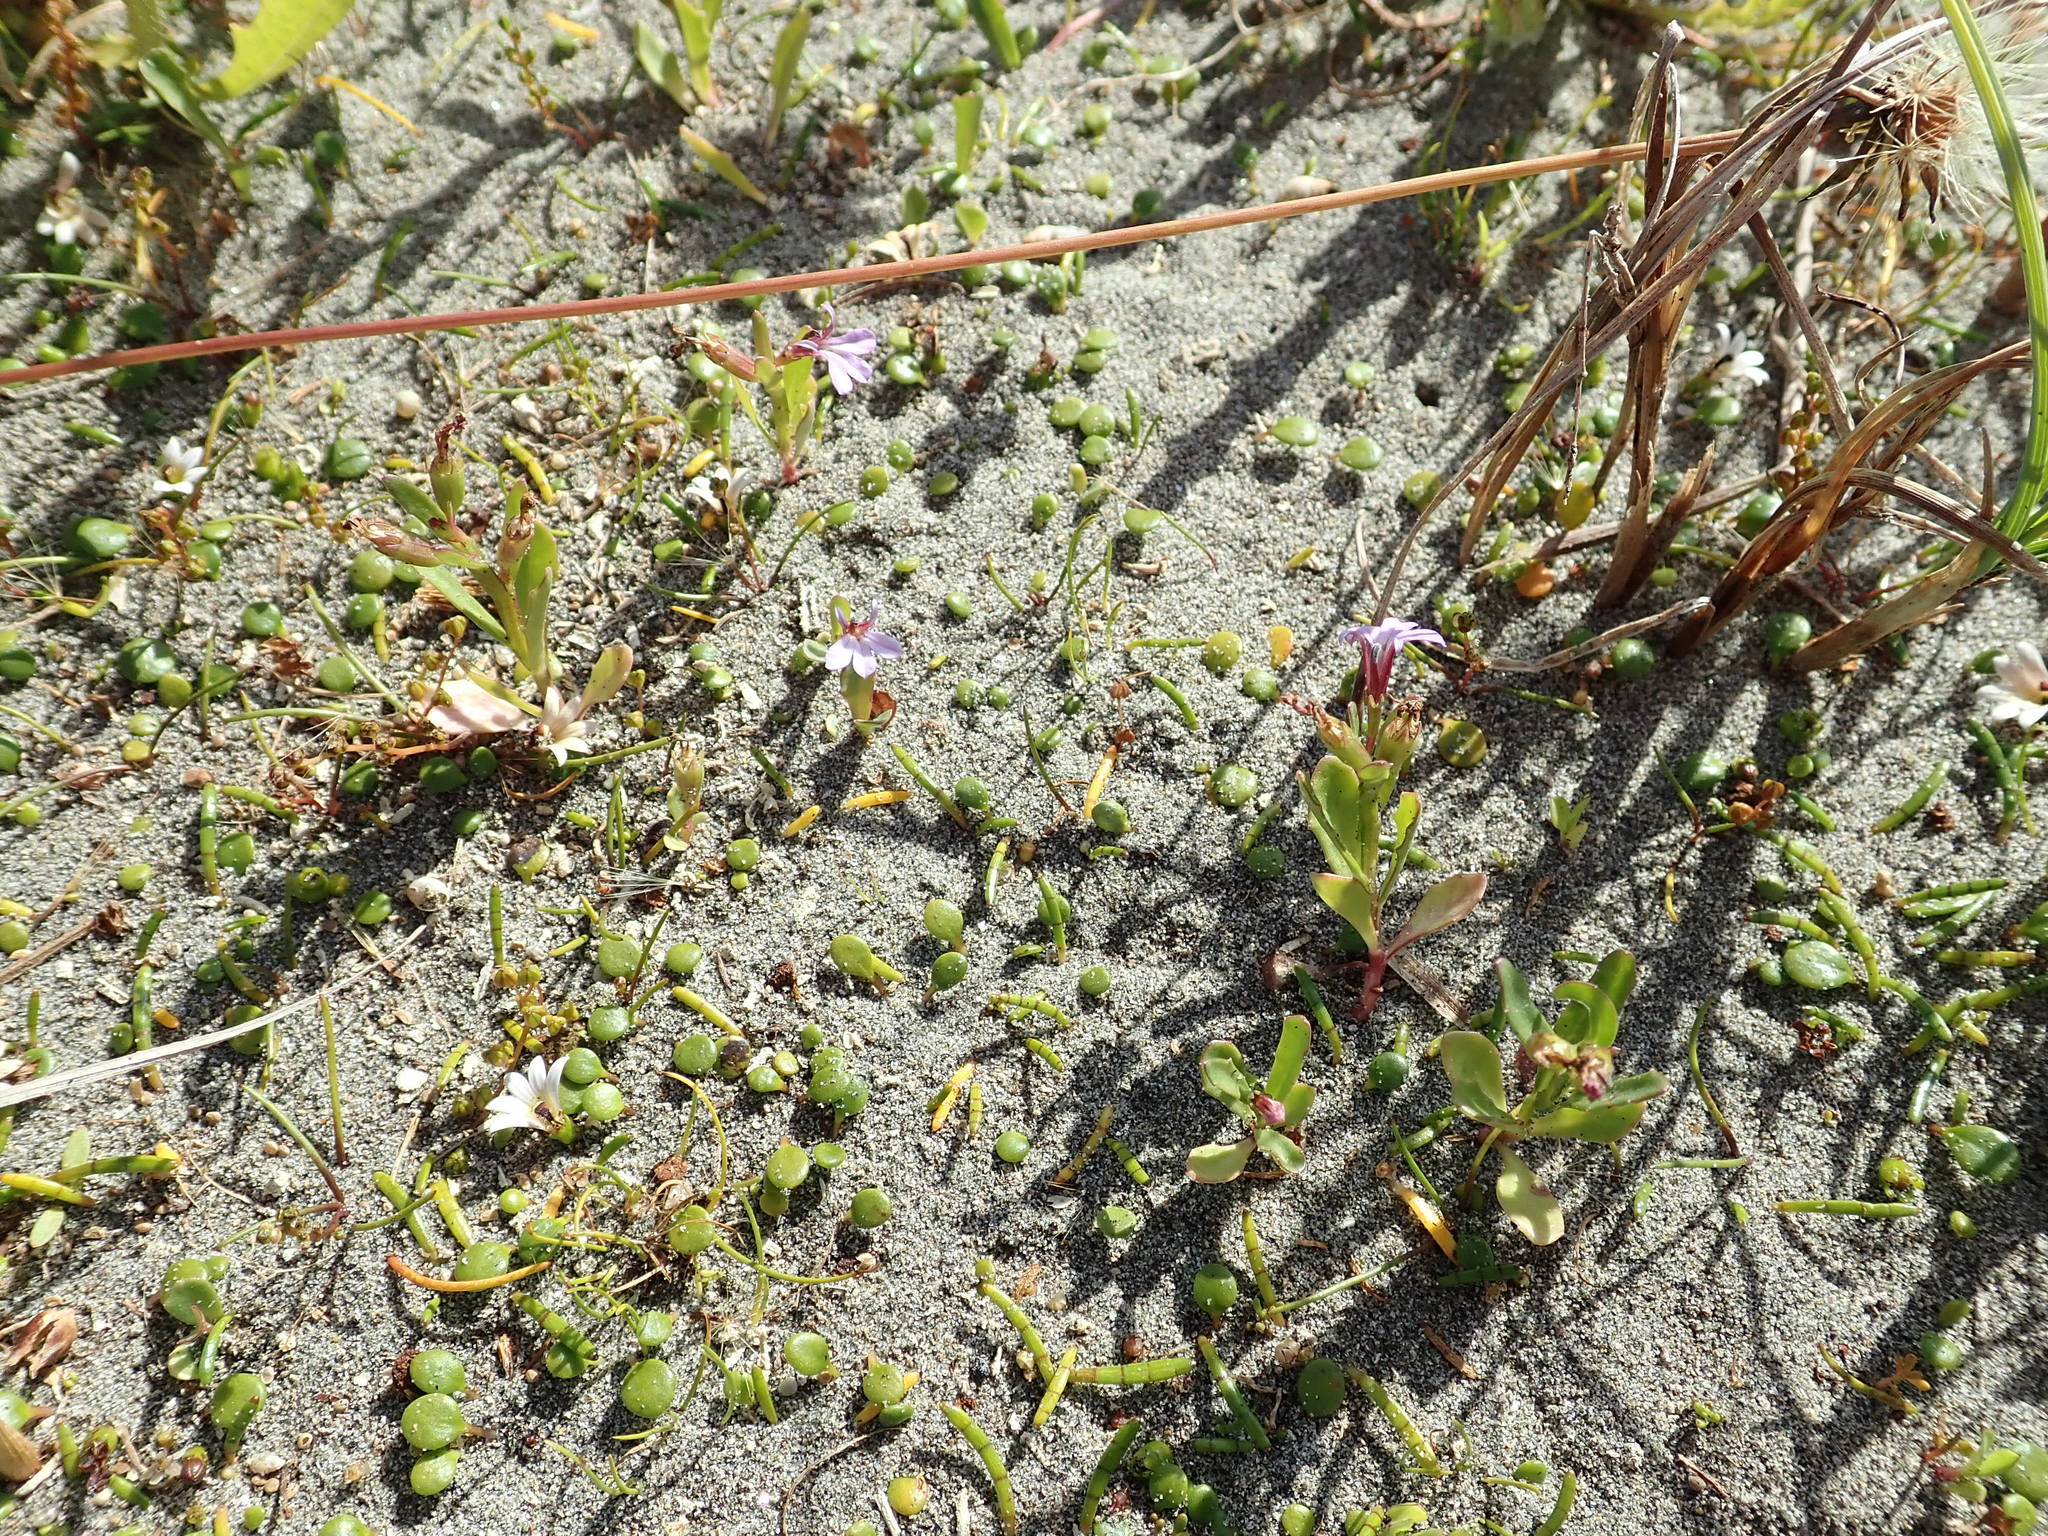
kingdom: Plantae
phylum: Tracheophyta
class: Magnoliopsida
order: Asterales
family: Campanulaceae
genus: Lobelia
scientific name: Lobelia anceps
